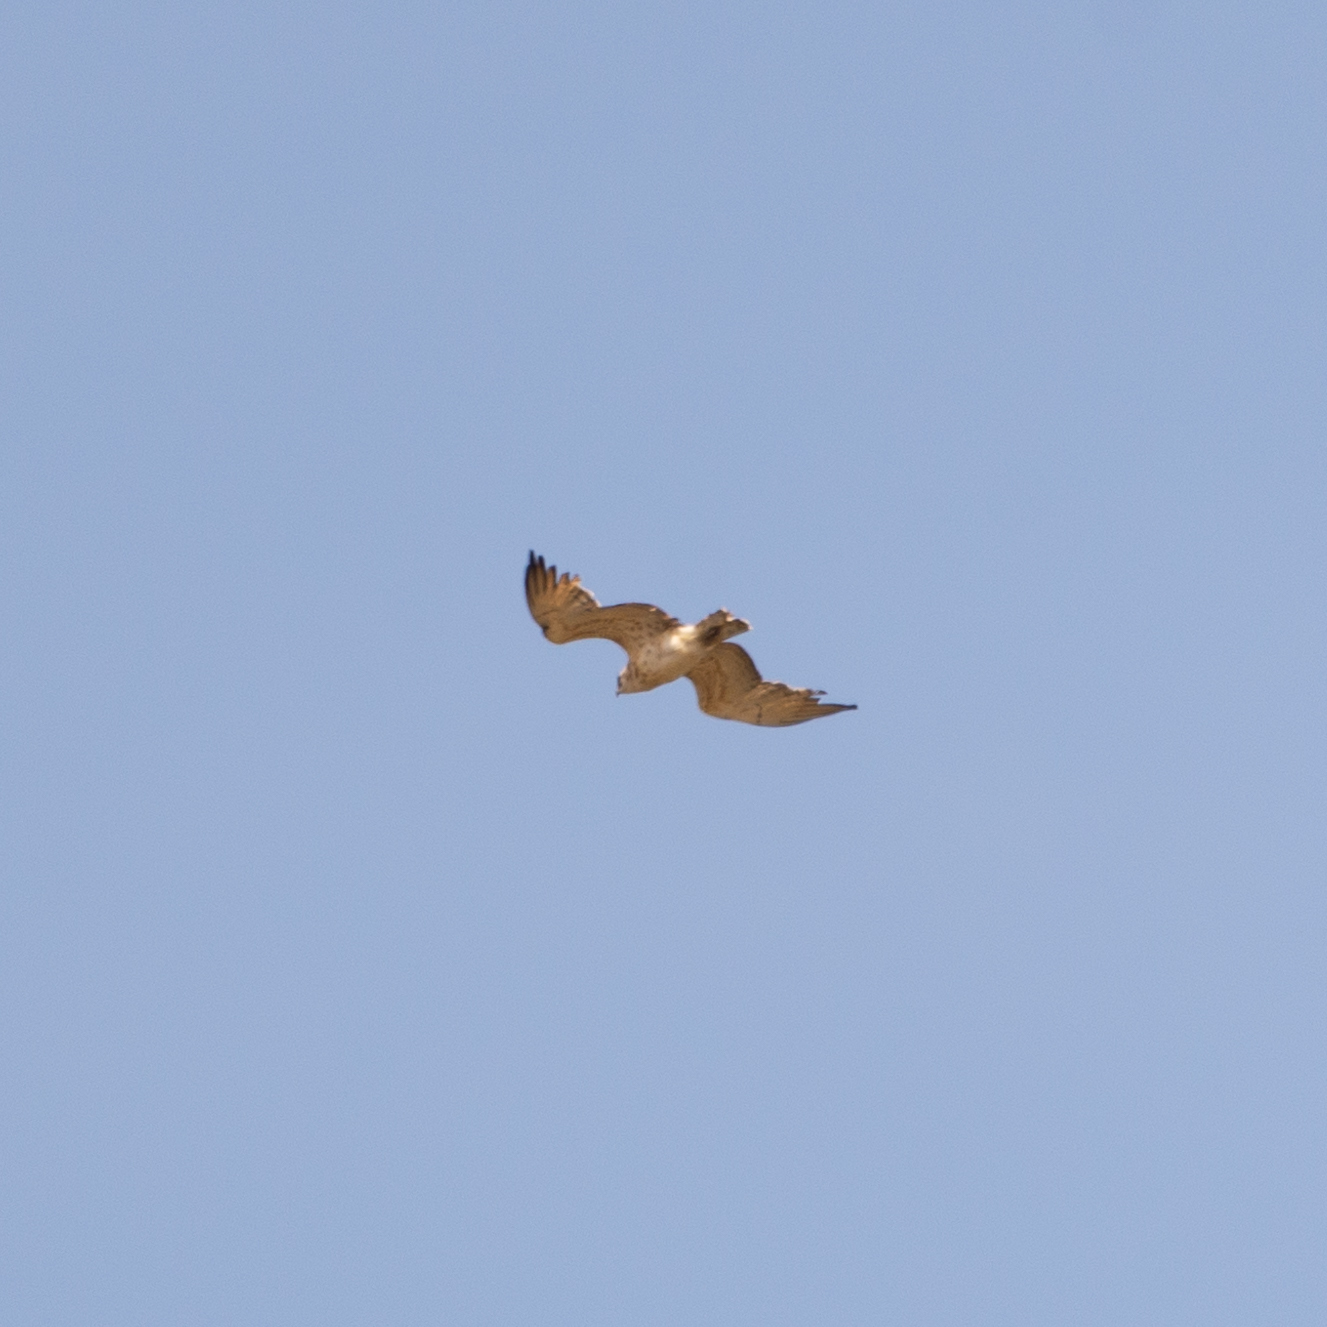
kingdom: Animalia
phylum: Chordata
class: Aves
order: Accipitriformes
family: Accipitridae
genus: Circaetus
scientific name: Circaetus gallicus
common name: Short-toed snake eagle
